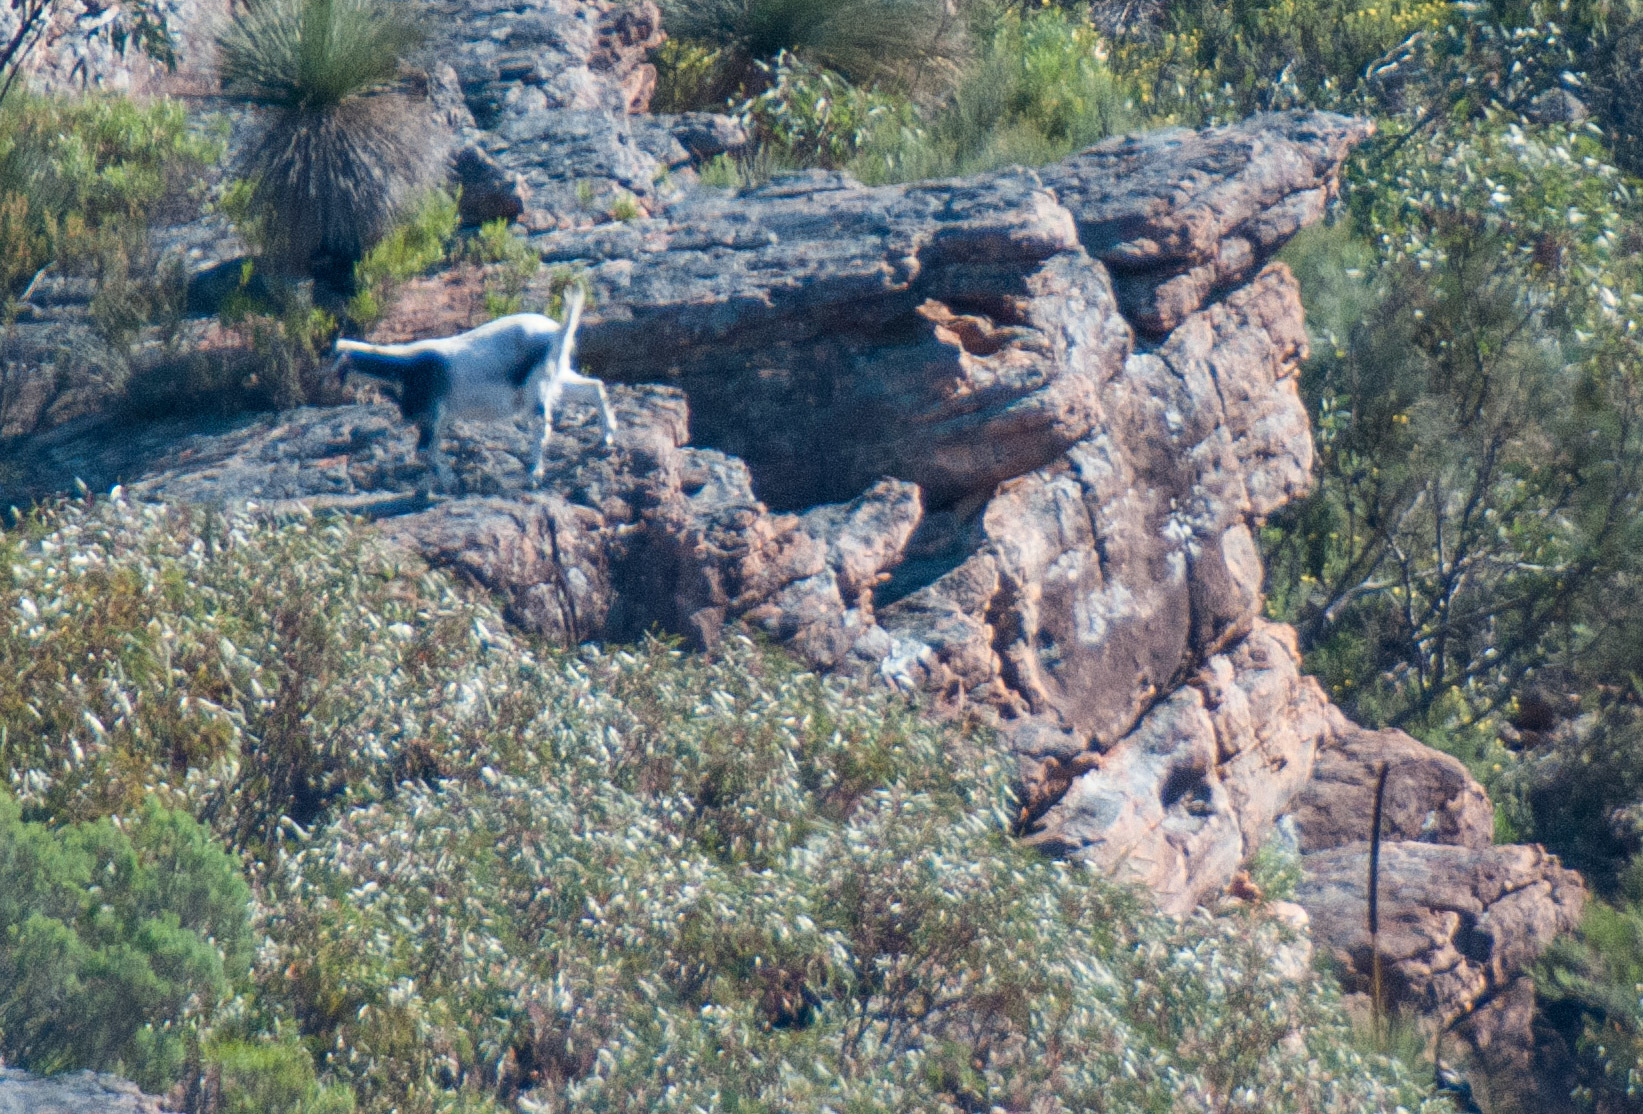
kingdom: Animalia
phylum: Chordata
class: Mammalia
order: Artiodactyla
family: Bovidae
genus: Capra
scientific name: Capra hircus
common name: Domestic goat
